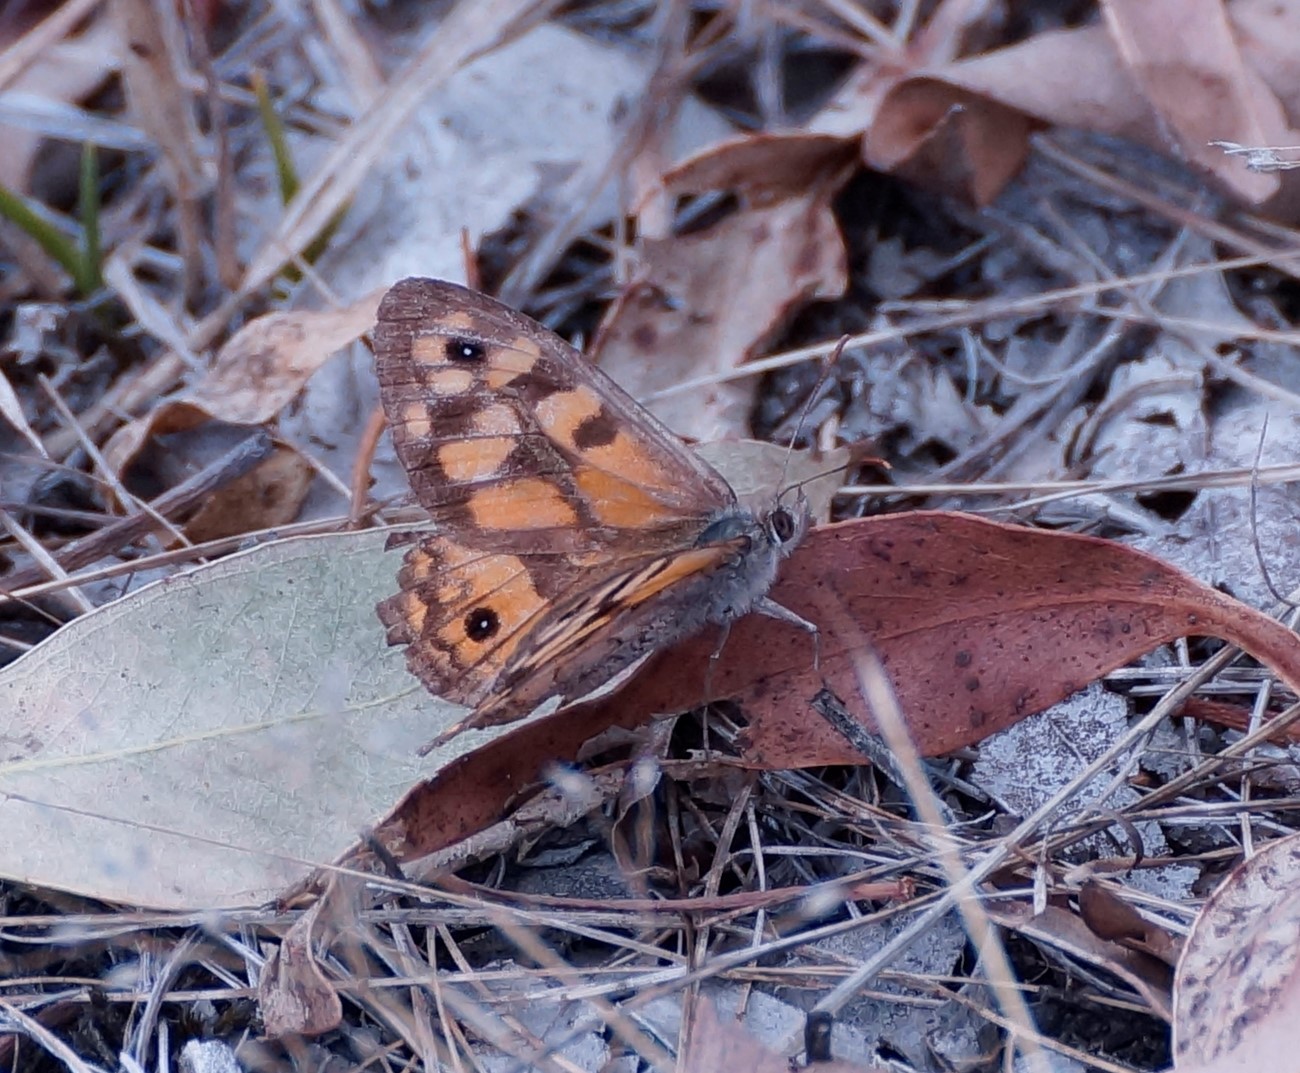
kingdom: Animalia
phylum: Arthropoda
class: Insecta
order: Lepidoptera
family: Nymphalidae
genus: Geitoneura
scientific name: Geitoneura klugii
